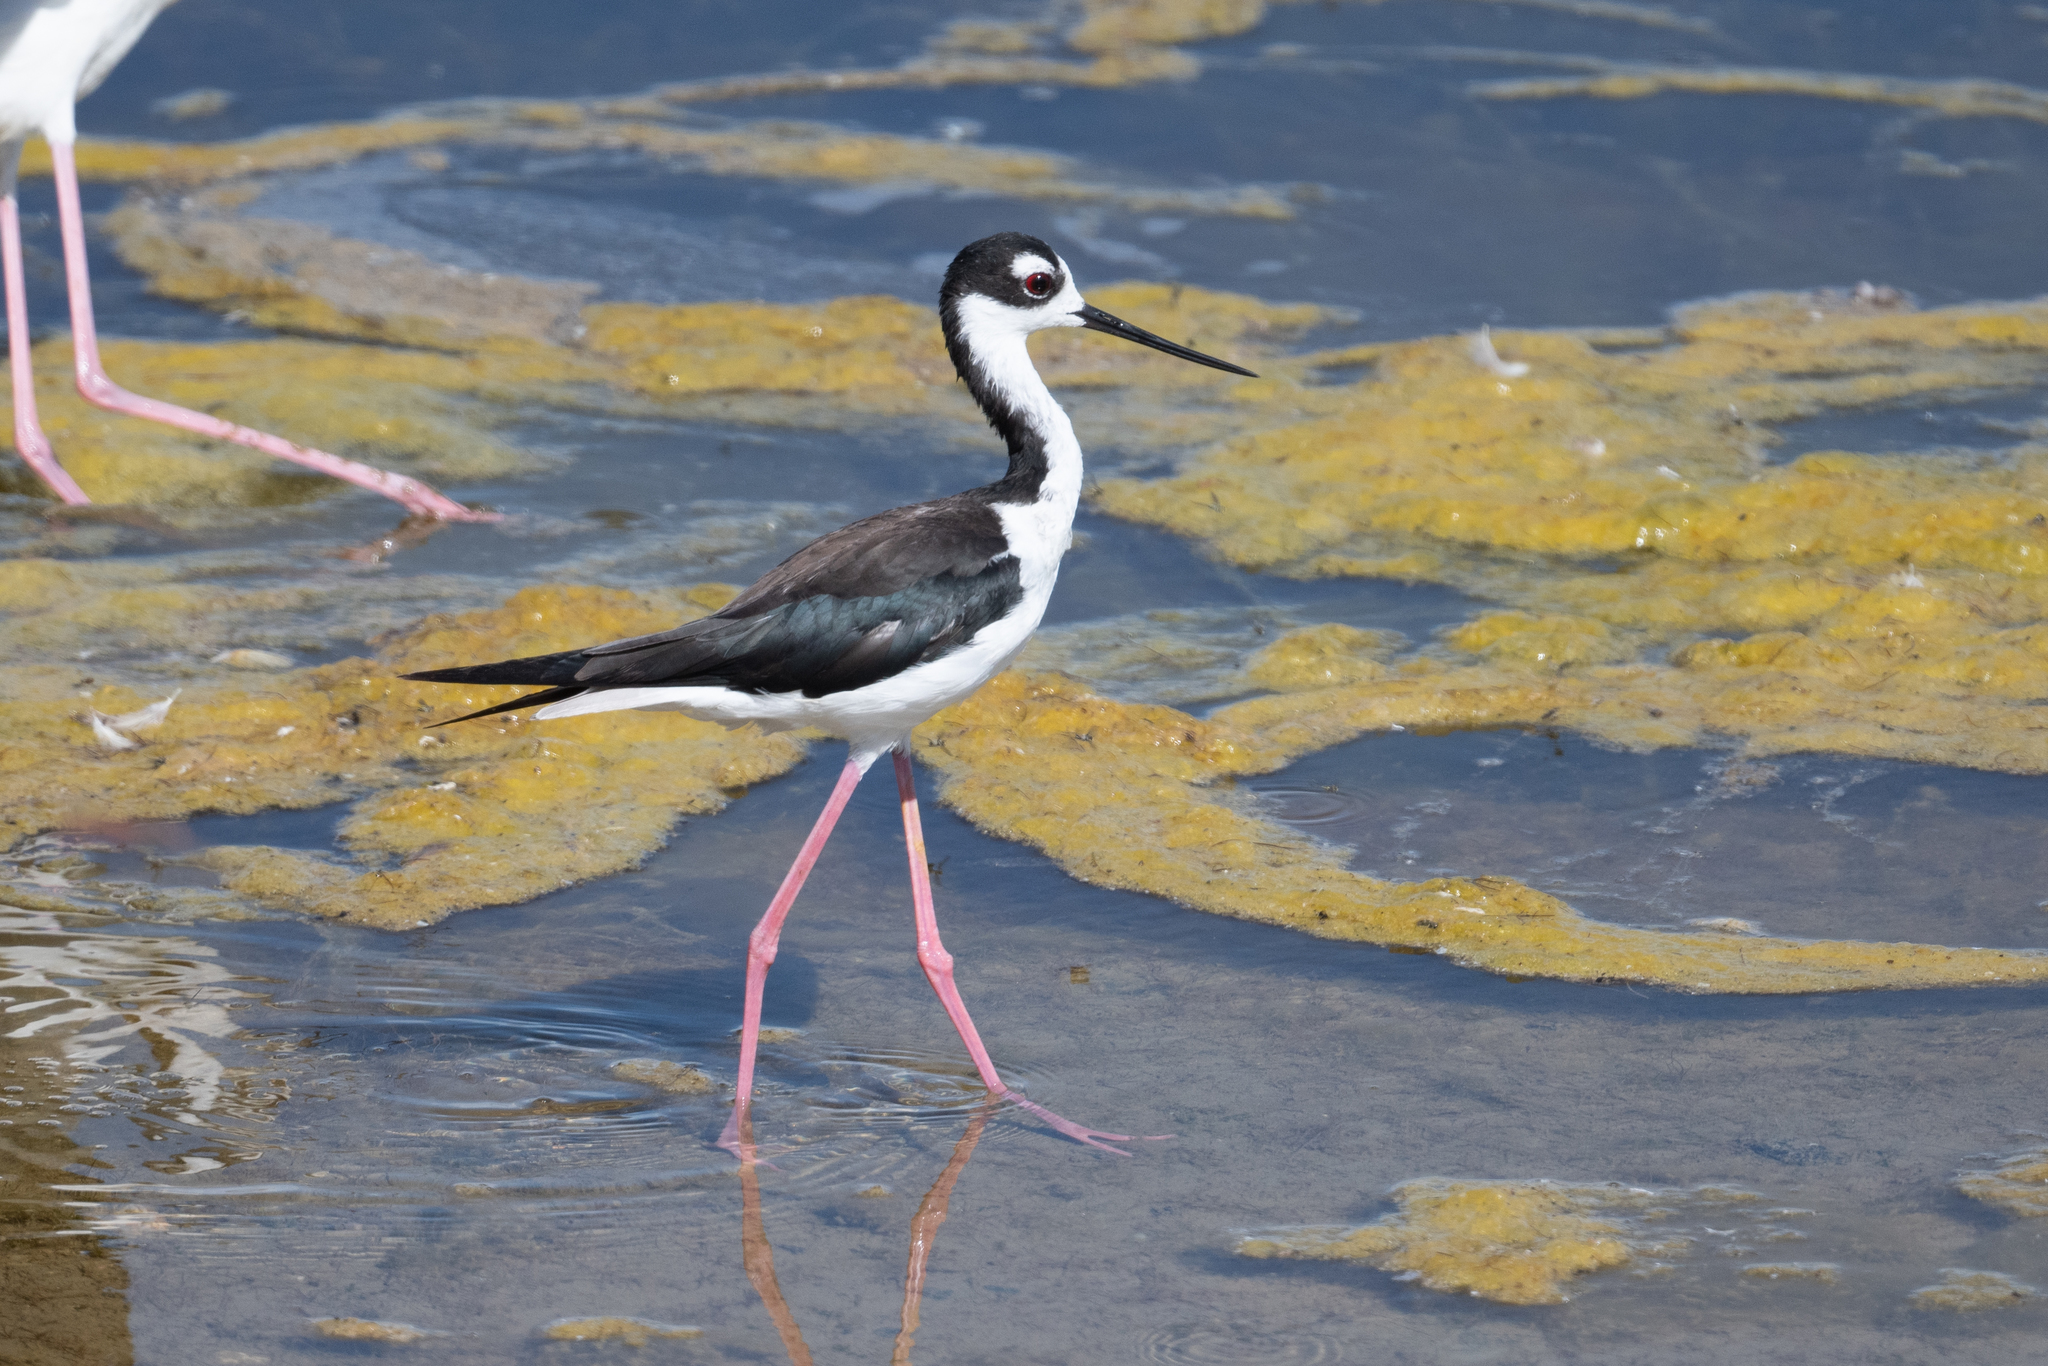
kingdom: Animalia
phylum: Chordata
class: Aves
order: Charadriiformes
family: Recurvirostridae
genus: Himantopus
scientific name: Himantopus mexicanus
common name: Black-necked stilt
